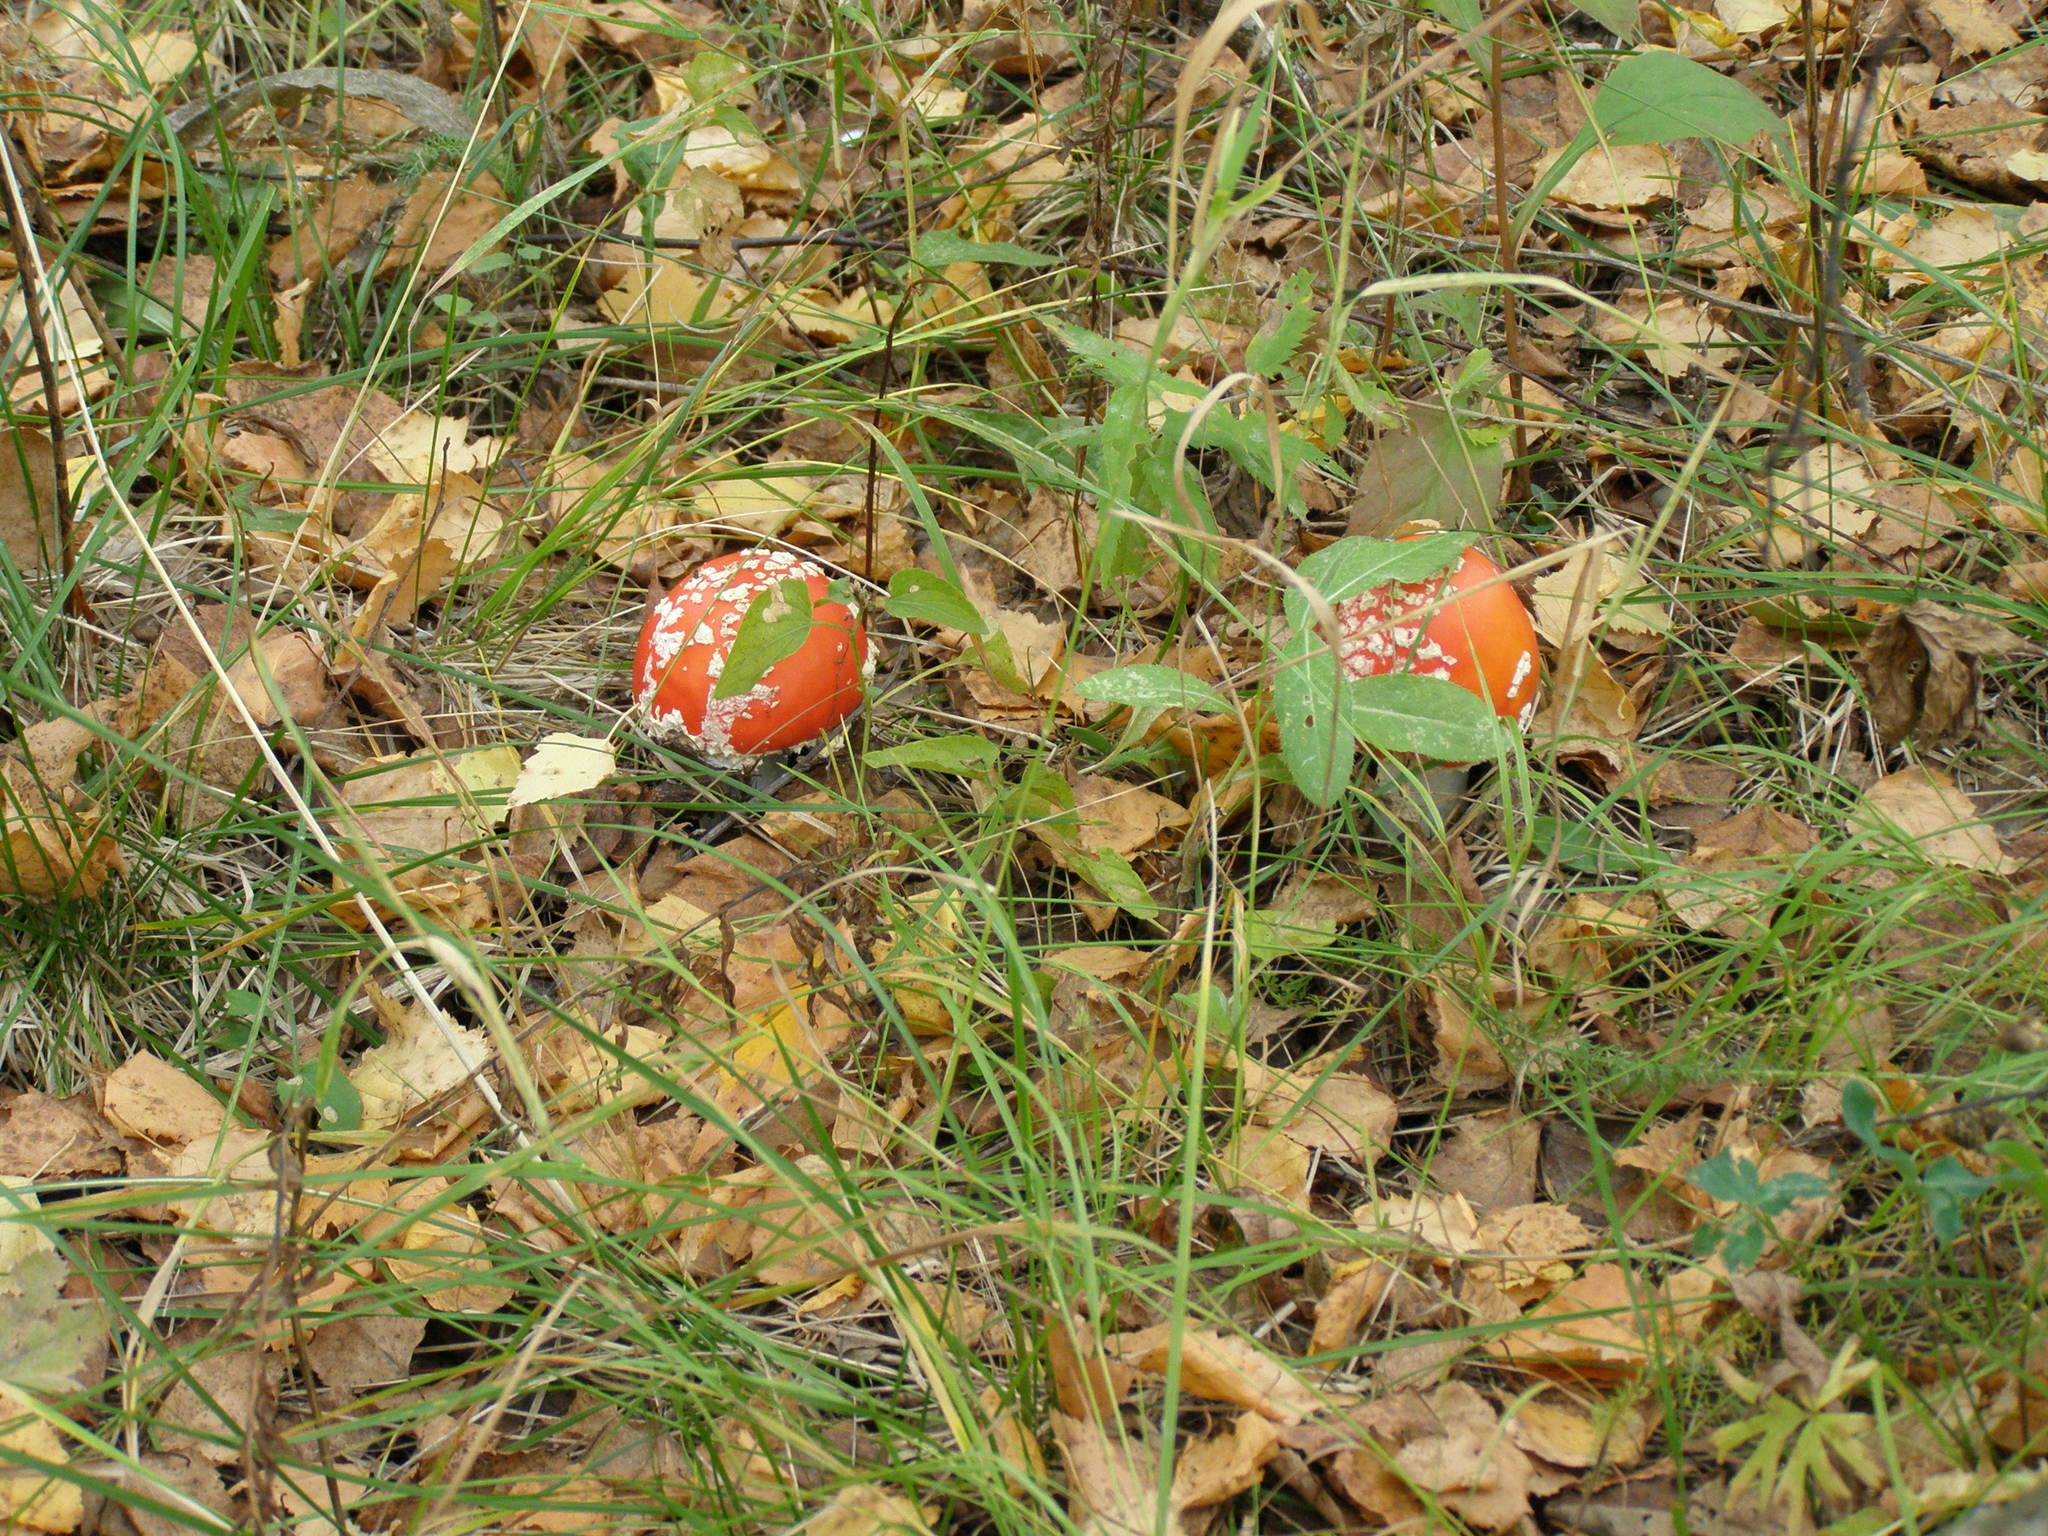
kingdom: Fungi
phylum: Basidiomycota
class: Agaricomycetes
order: Agaricales
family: Amanitaceae
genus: Amanita
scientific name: Amanita muscaria
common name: Fly agaric
